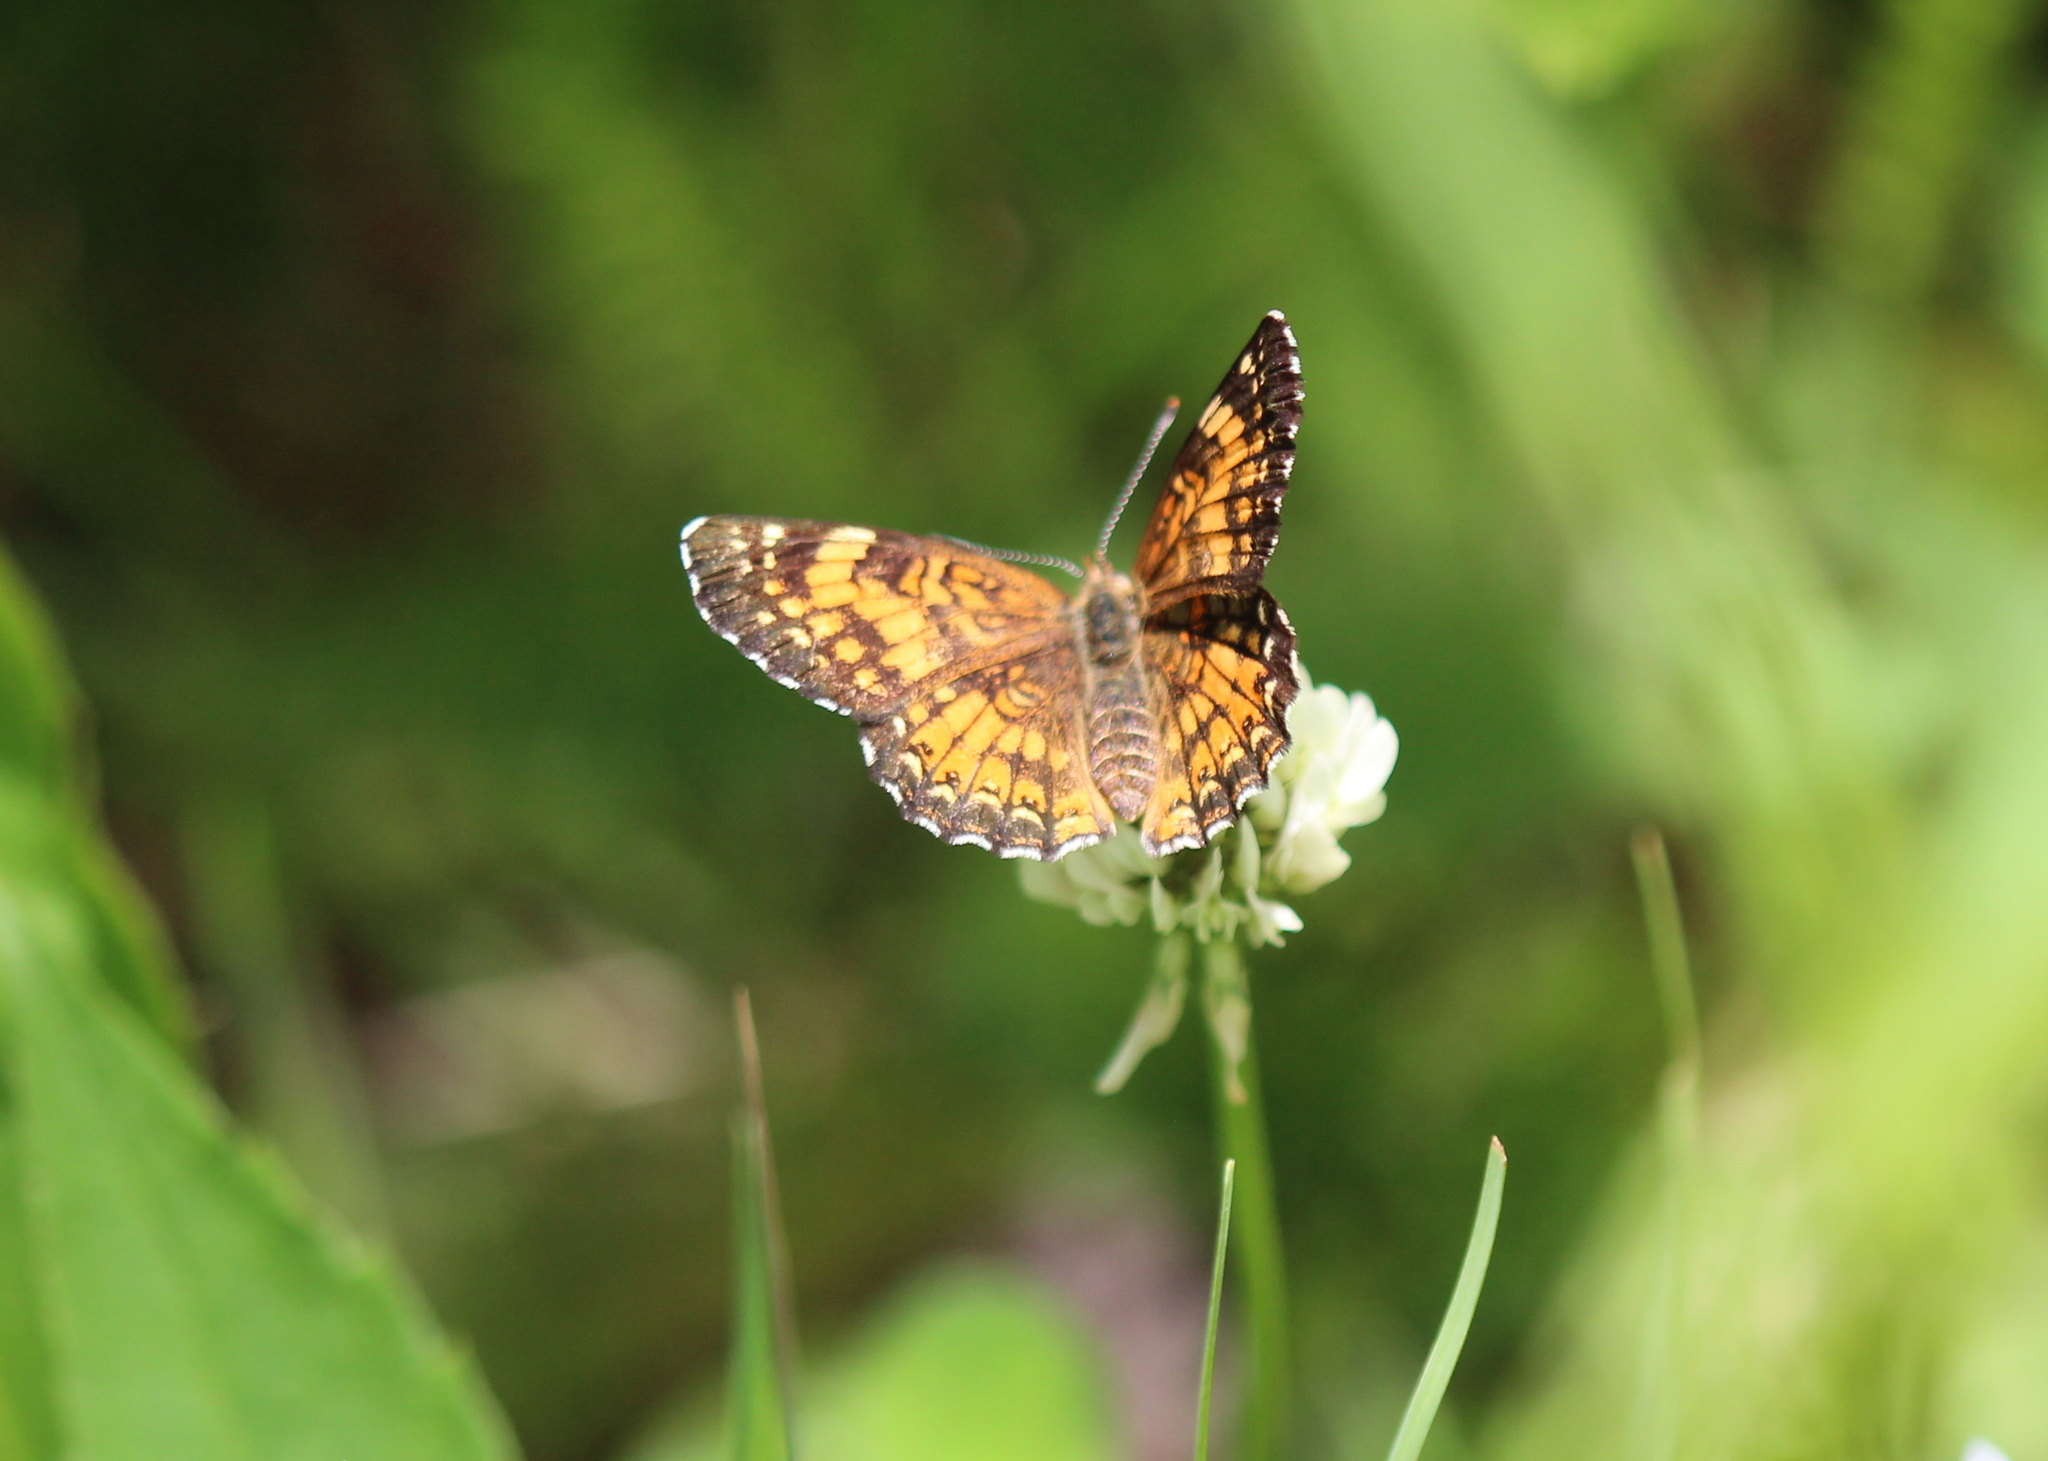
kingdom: Animalia
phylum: Arthropoda
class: Insecta
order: Lepidoptera
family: Nymphalidae
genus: Chlosyne
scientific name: Chlosyne harrisii
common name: Harris's checkerspot
